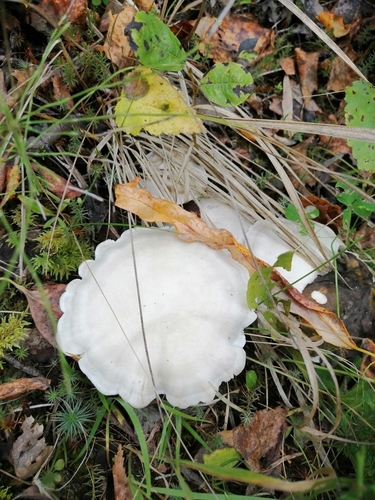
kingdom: Fungi
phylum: Basidiomycota
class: Agaricomycetes
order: Agaricales
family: Tricholomataceae
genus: Clitocybe
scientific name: Clitocybe
